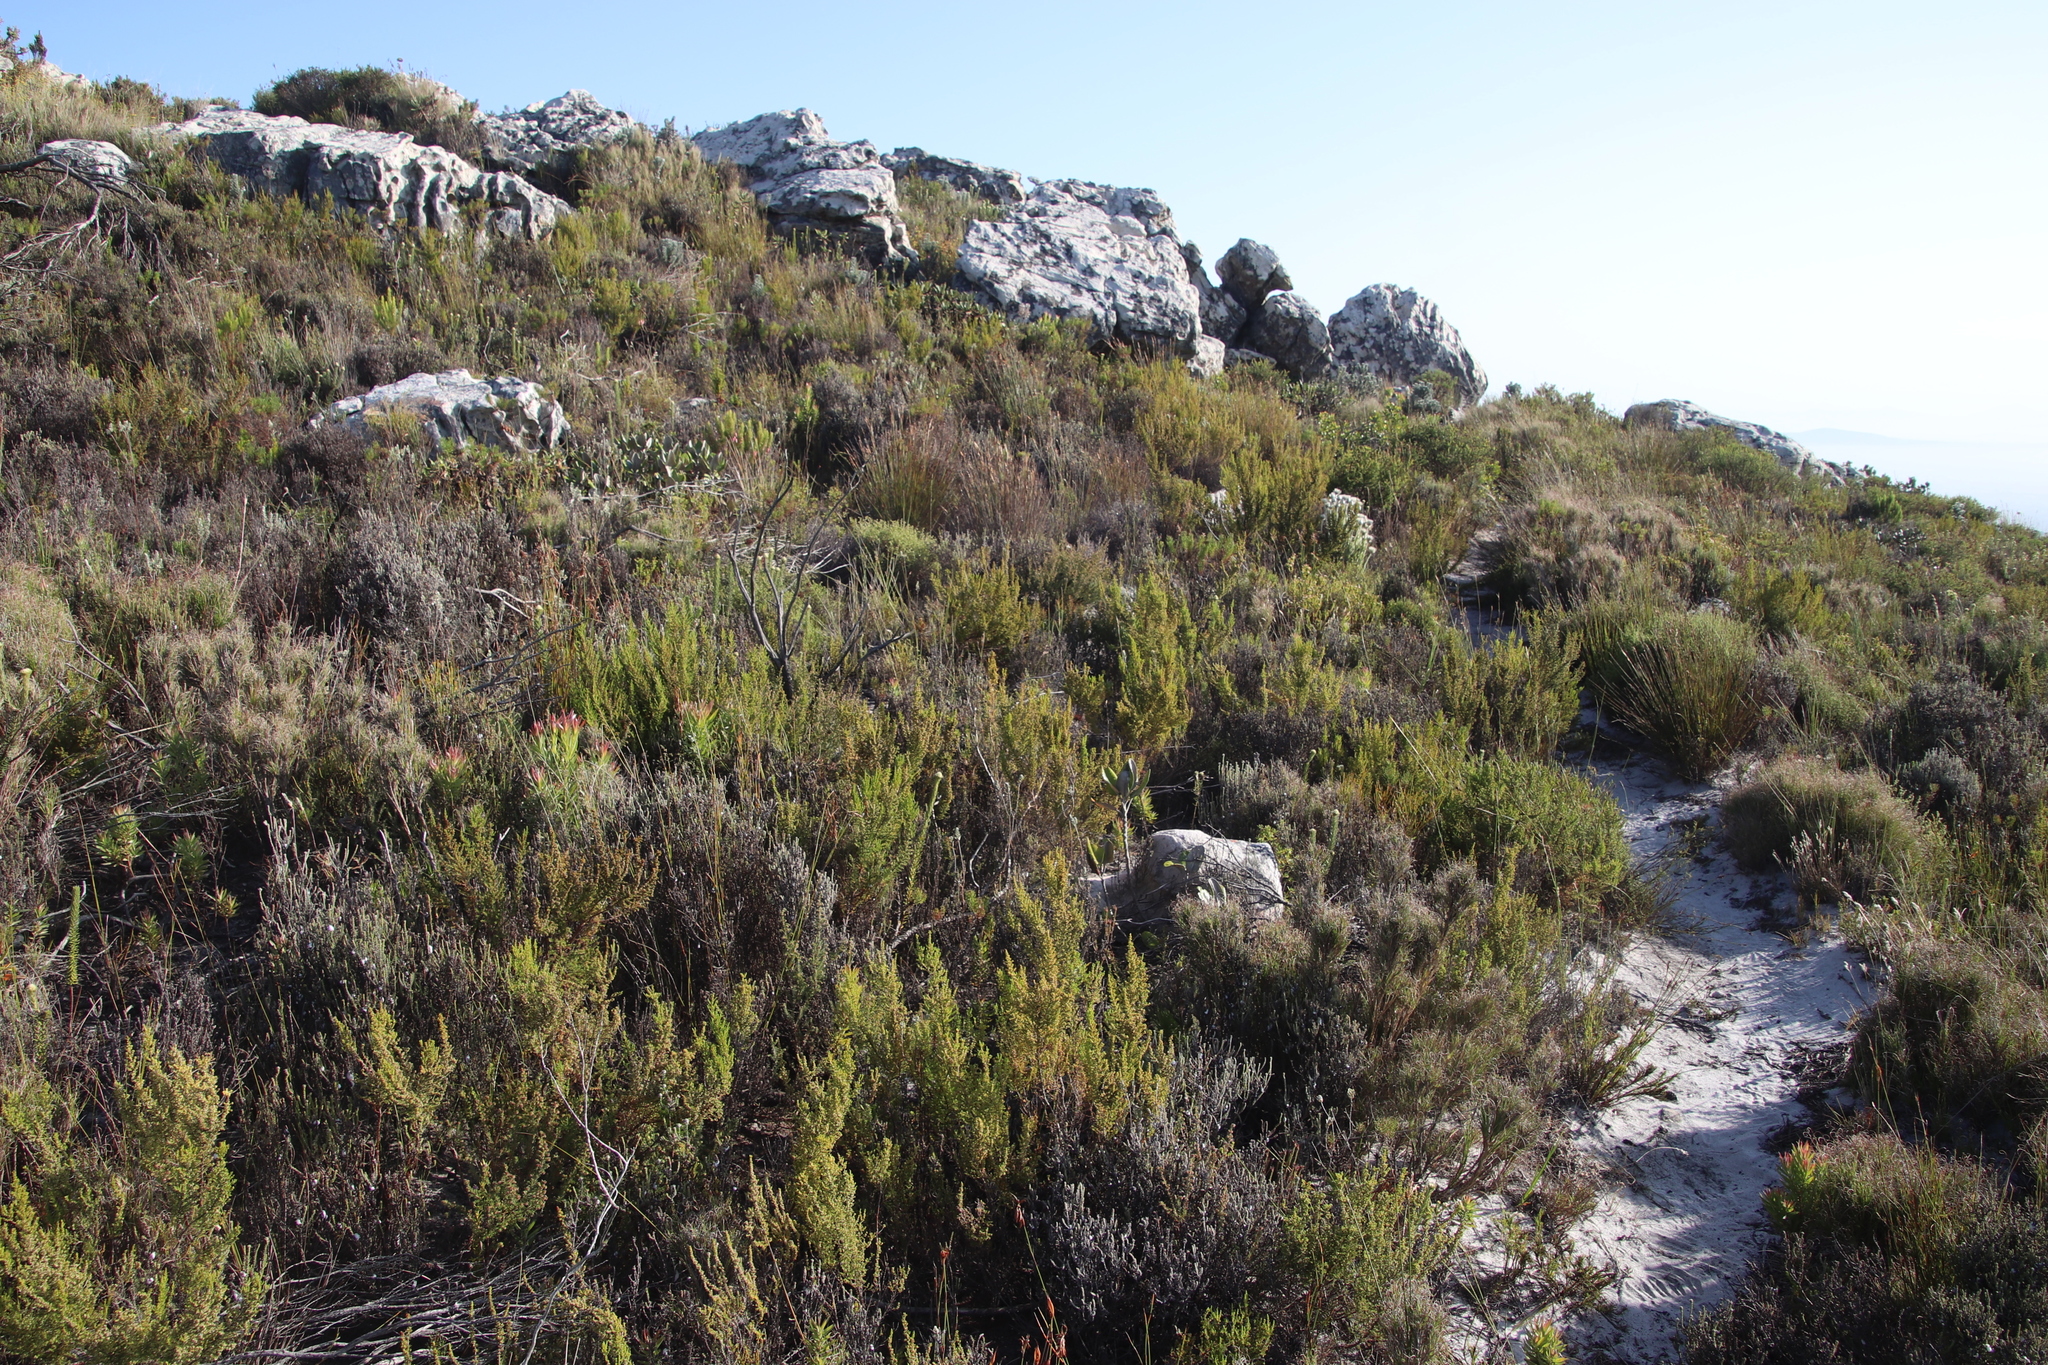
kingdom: Plantae
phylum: Tracheophyta
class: Magnoliopsida
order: Ericales
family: Ericaceae
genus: Erica
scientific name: Erica muscosa
